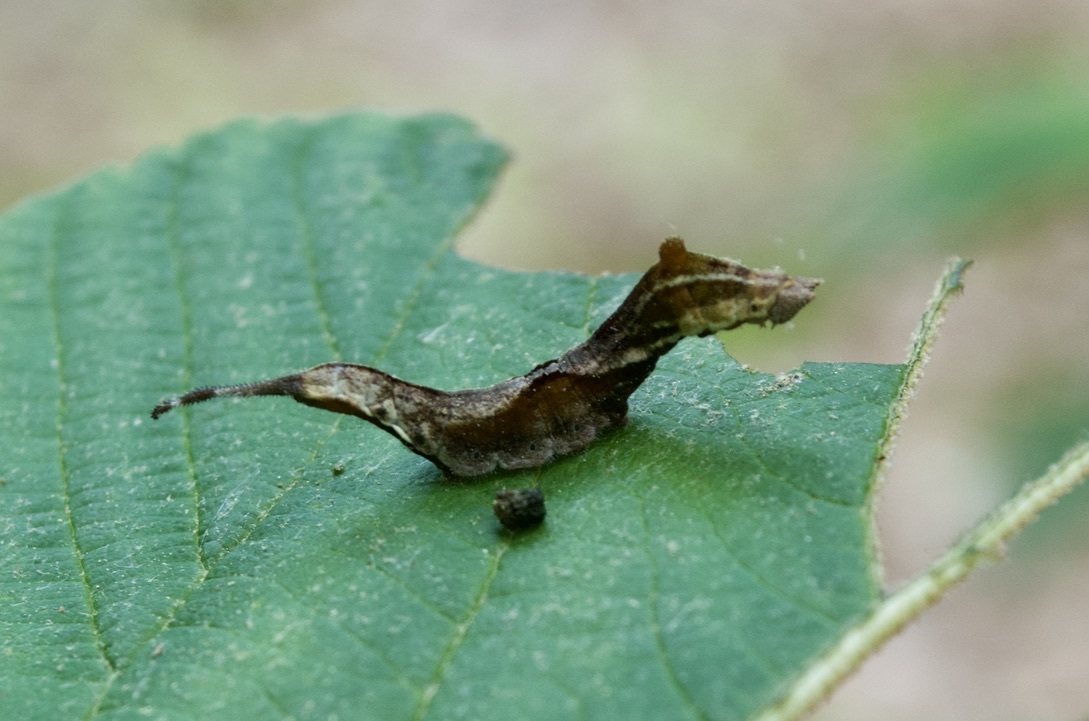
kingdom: Animalia
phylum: Arthropoda
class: Insecta
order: Lepidoptera
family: Drepanidae
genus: Oreta
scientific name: Oreta rosea
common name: Rose hooktip
